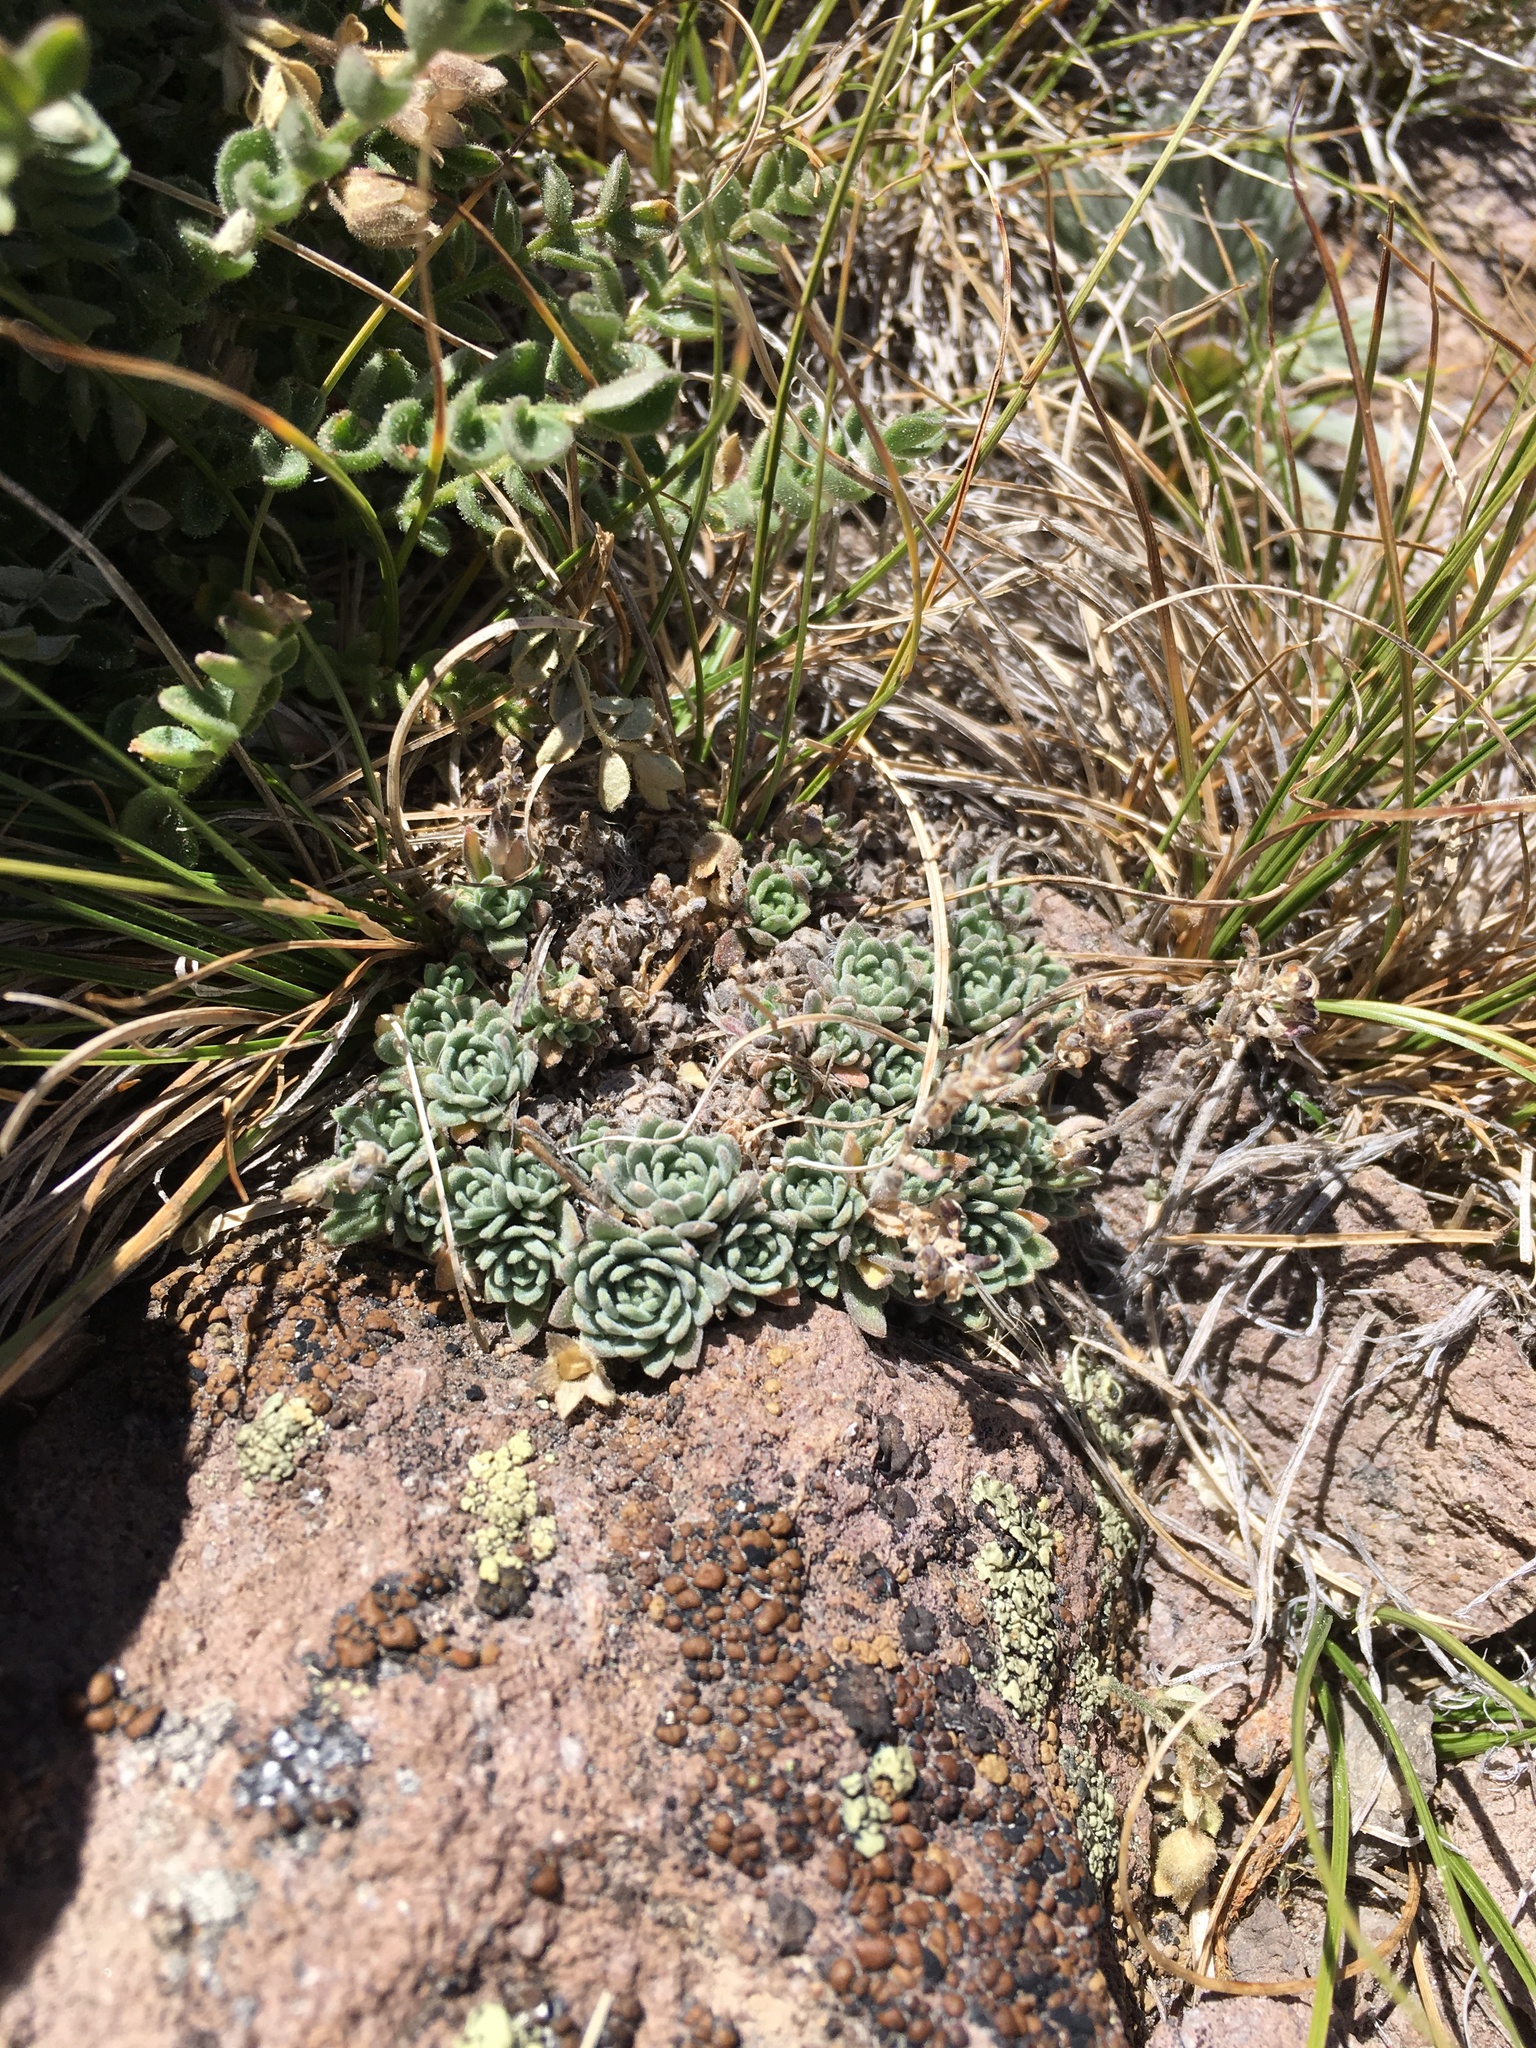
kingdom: Plantae
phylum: Tracheophyta
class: Magnoliopsida
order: Brassicales
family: Brassicaceae
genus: Draba
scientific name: Draba breweri
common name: Cushion draba
